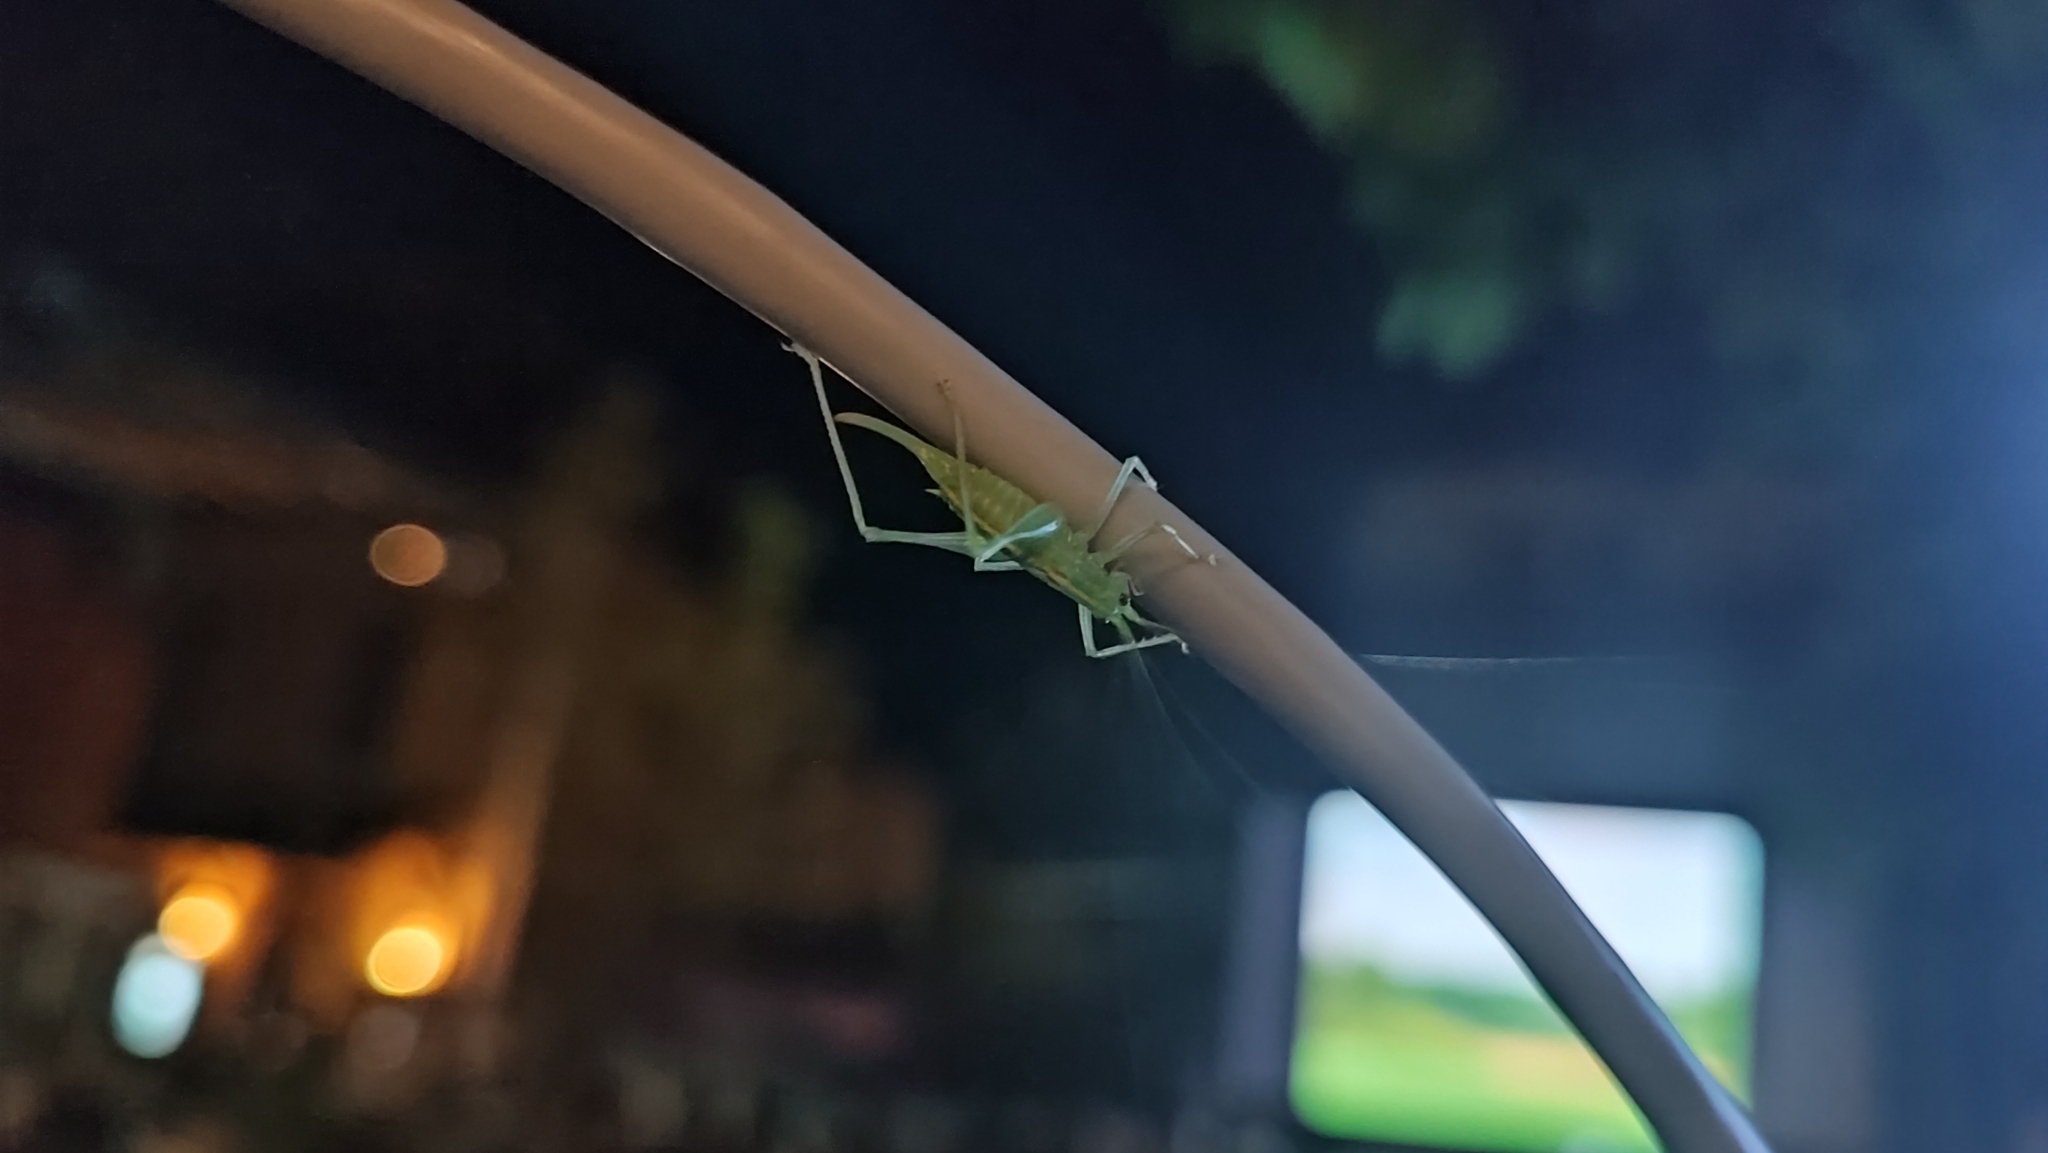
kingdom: Animalia
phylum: Arthropoda
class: Insecta
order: Orthoptera
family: Tettigoniidae
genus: Meconema
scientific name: Meconema meridionale
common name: Southern oak bush-cricket
